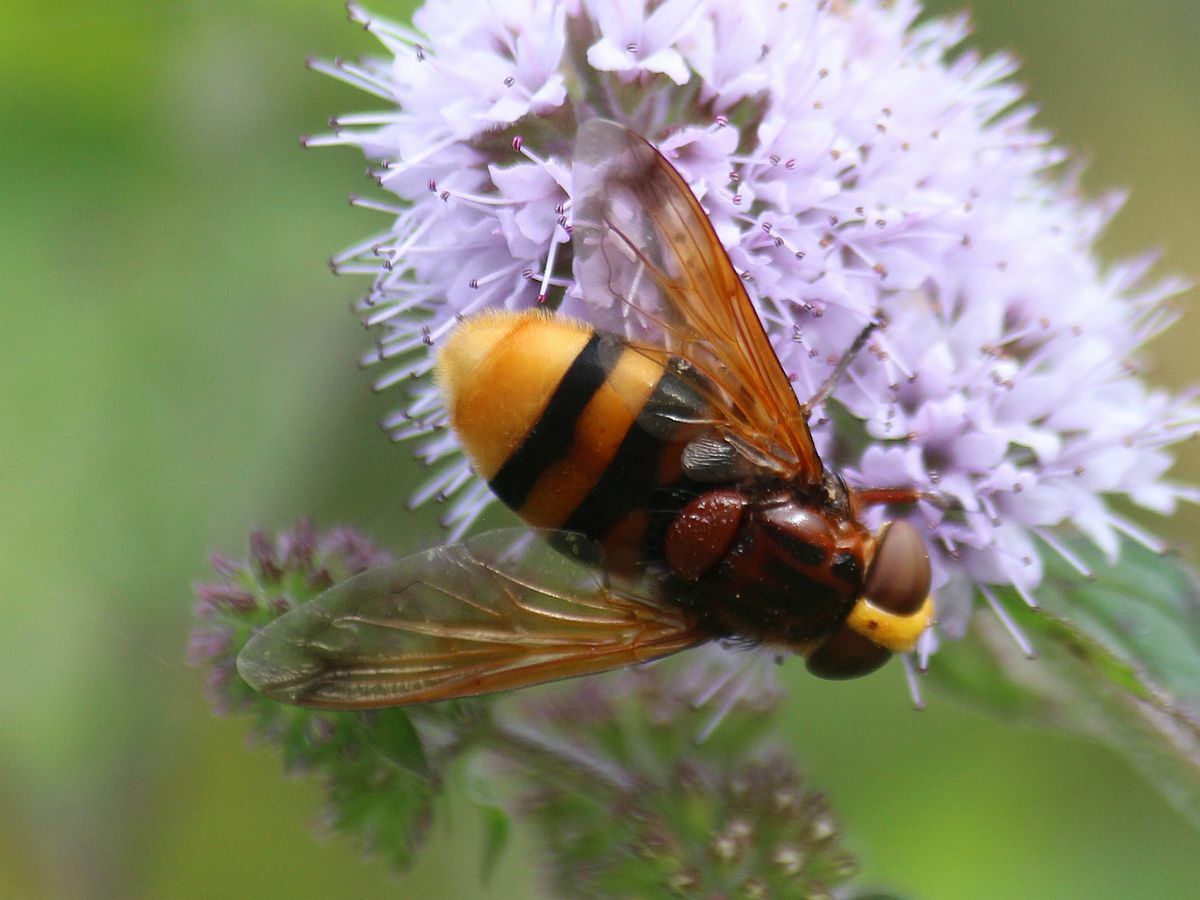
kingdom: Animalia
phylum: Arthropoda
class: Insecta
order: Diptera
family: Syrphidae
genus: Volucella
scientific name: Volucella zonaria
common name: Hornet hoverfly
